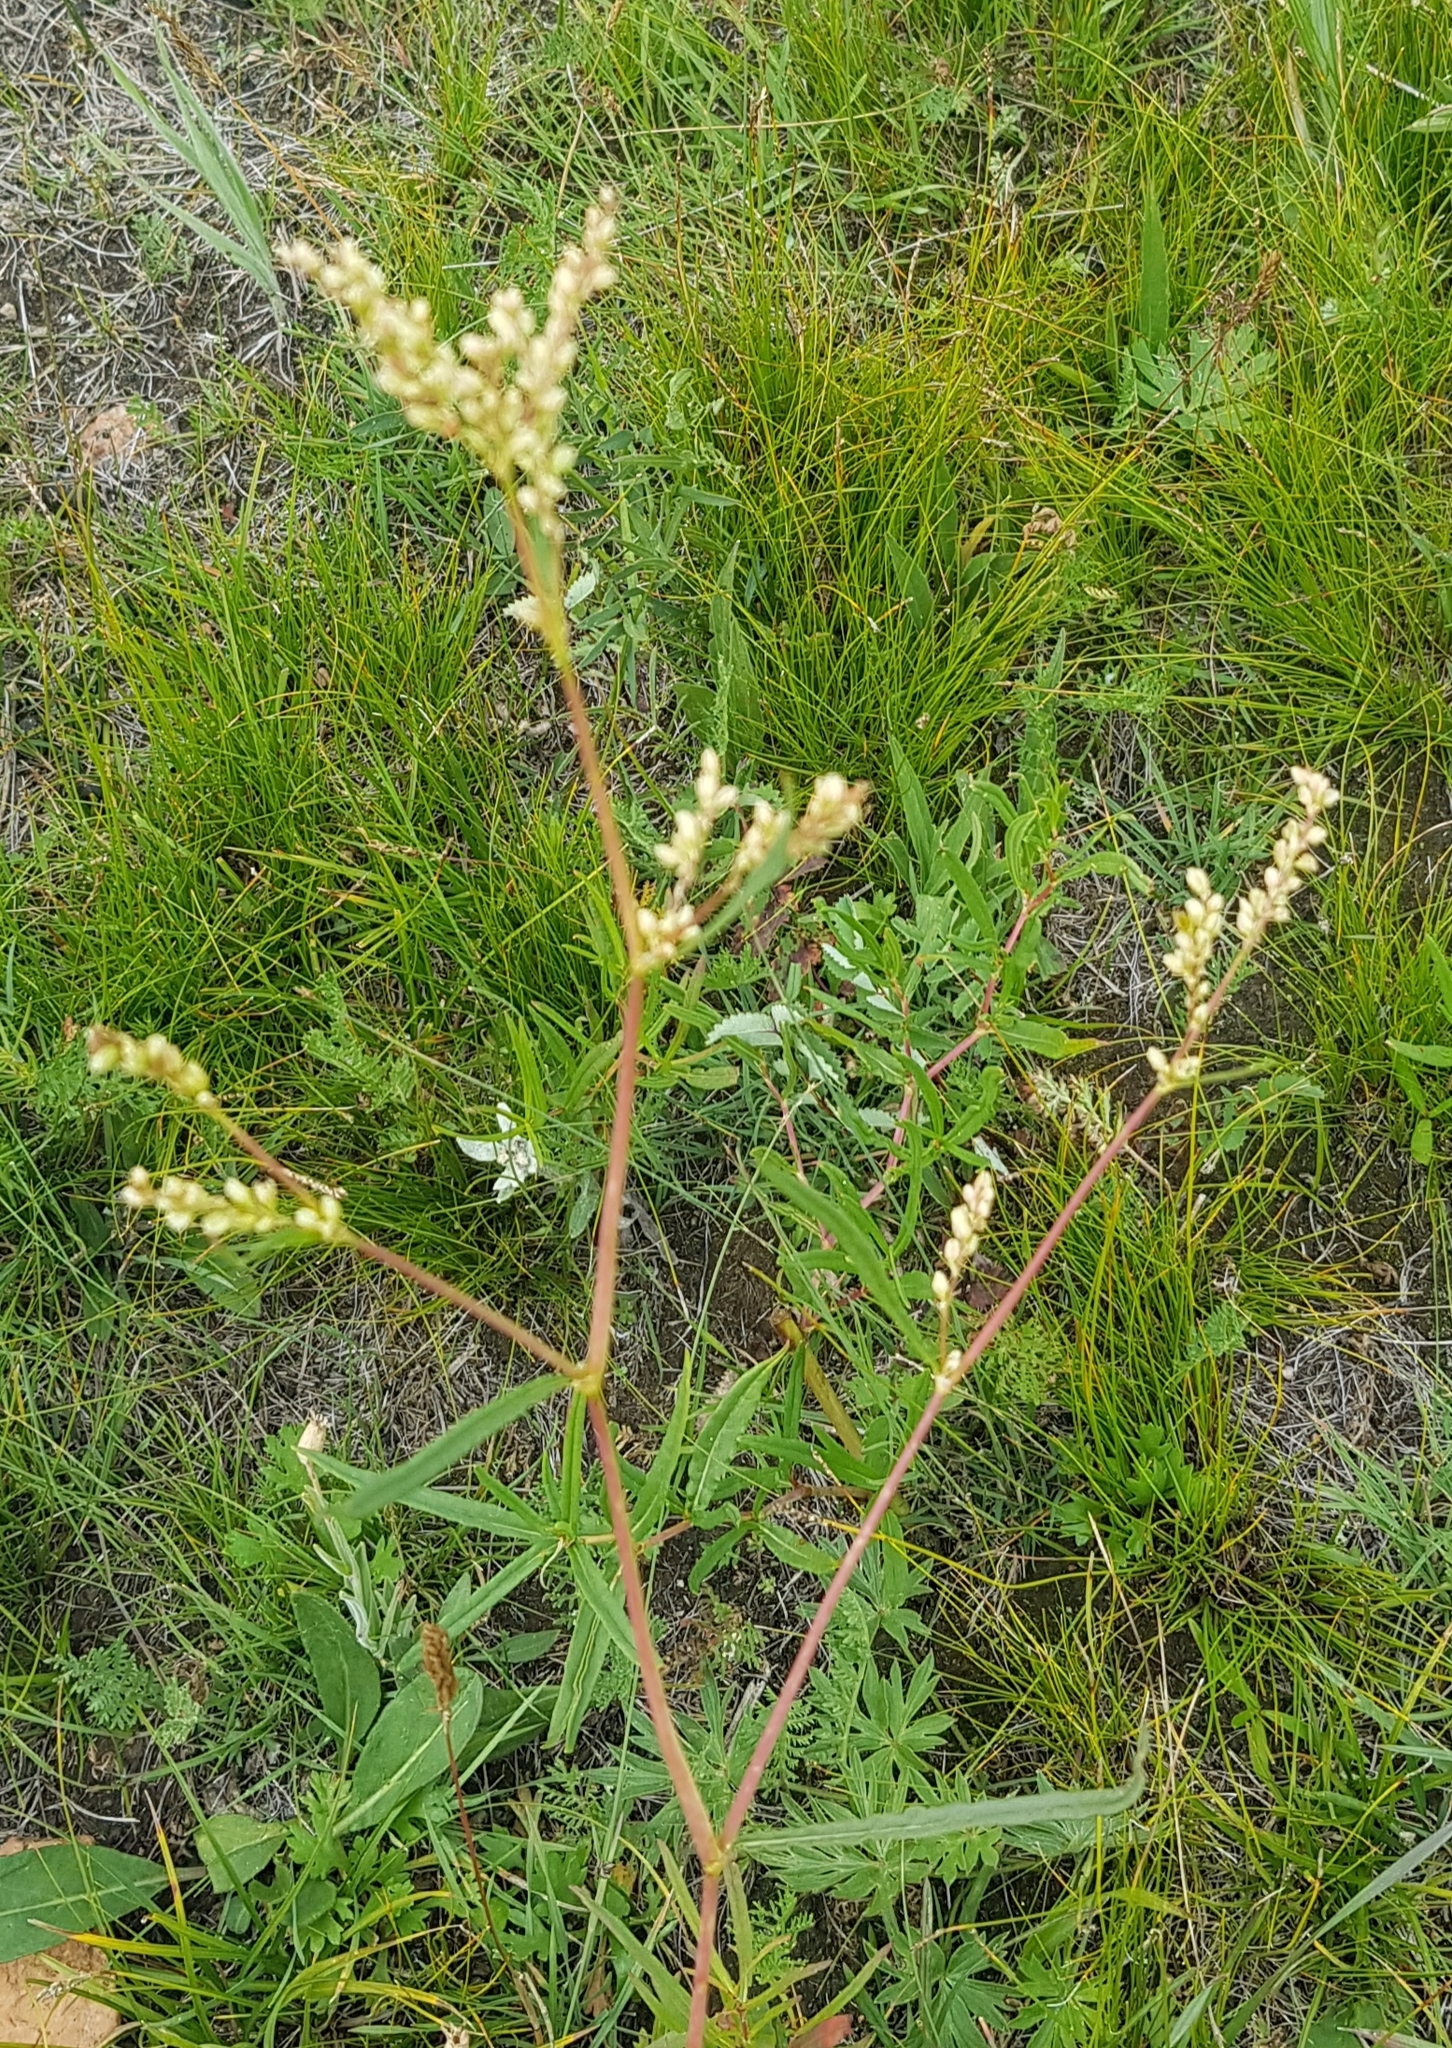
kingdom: Plantae
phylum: Tracheophyta
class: Magnoliopsida
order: Caryophyllales
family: Polygonaceae
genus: Persicaria
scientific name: Persicaria angustifolia
